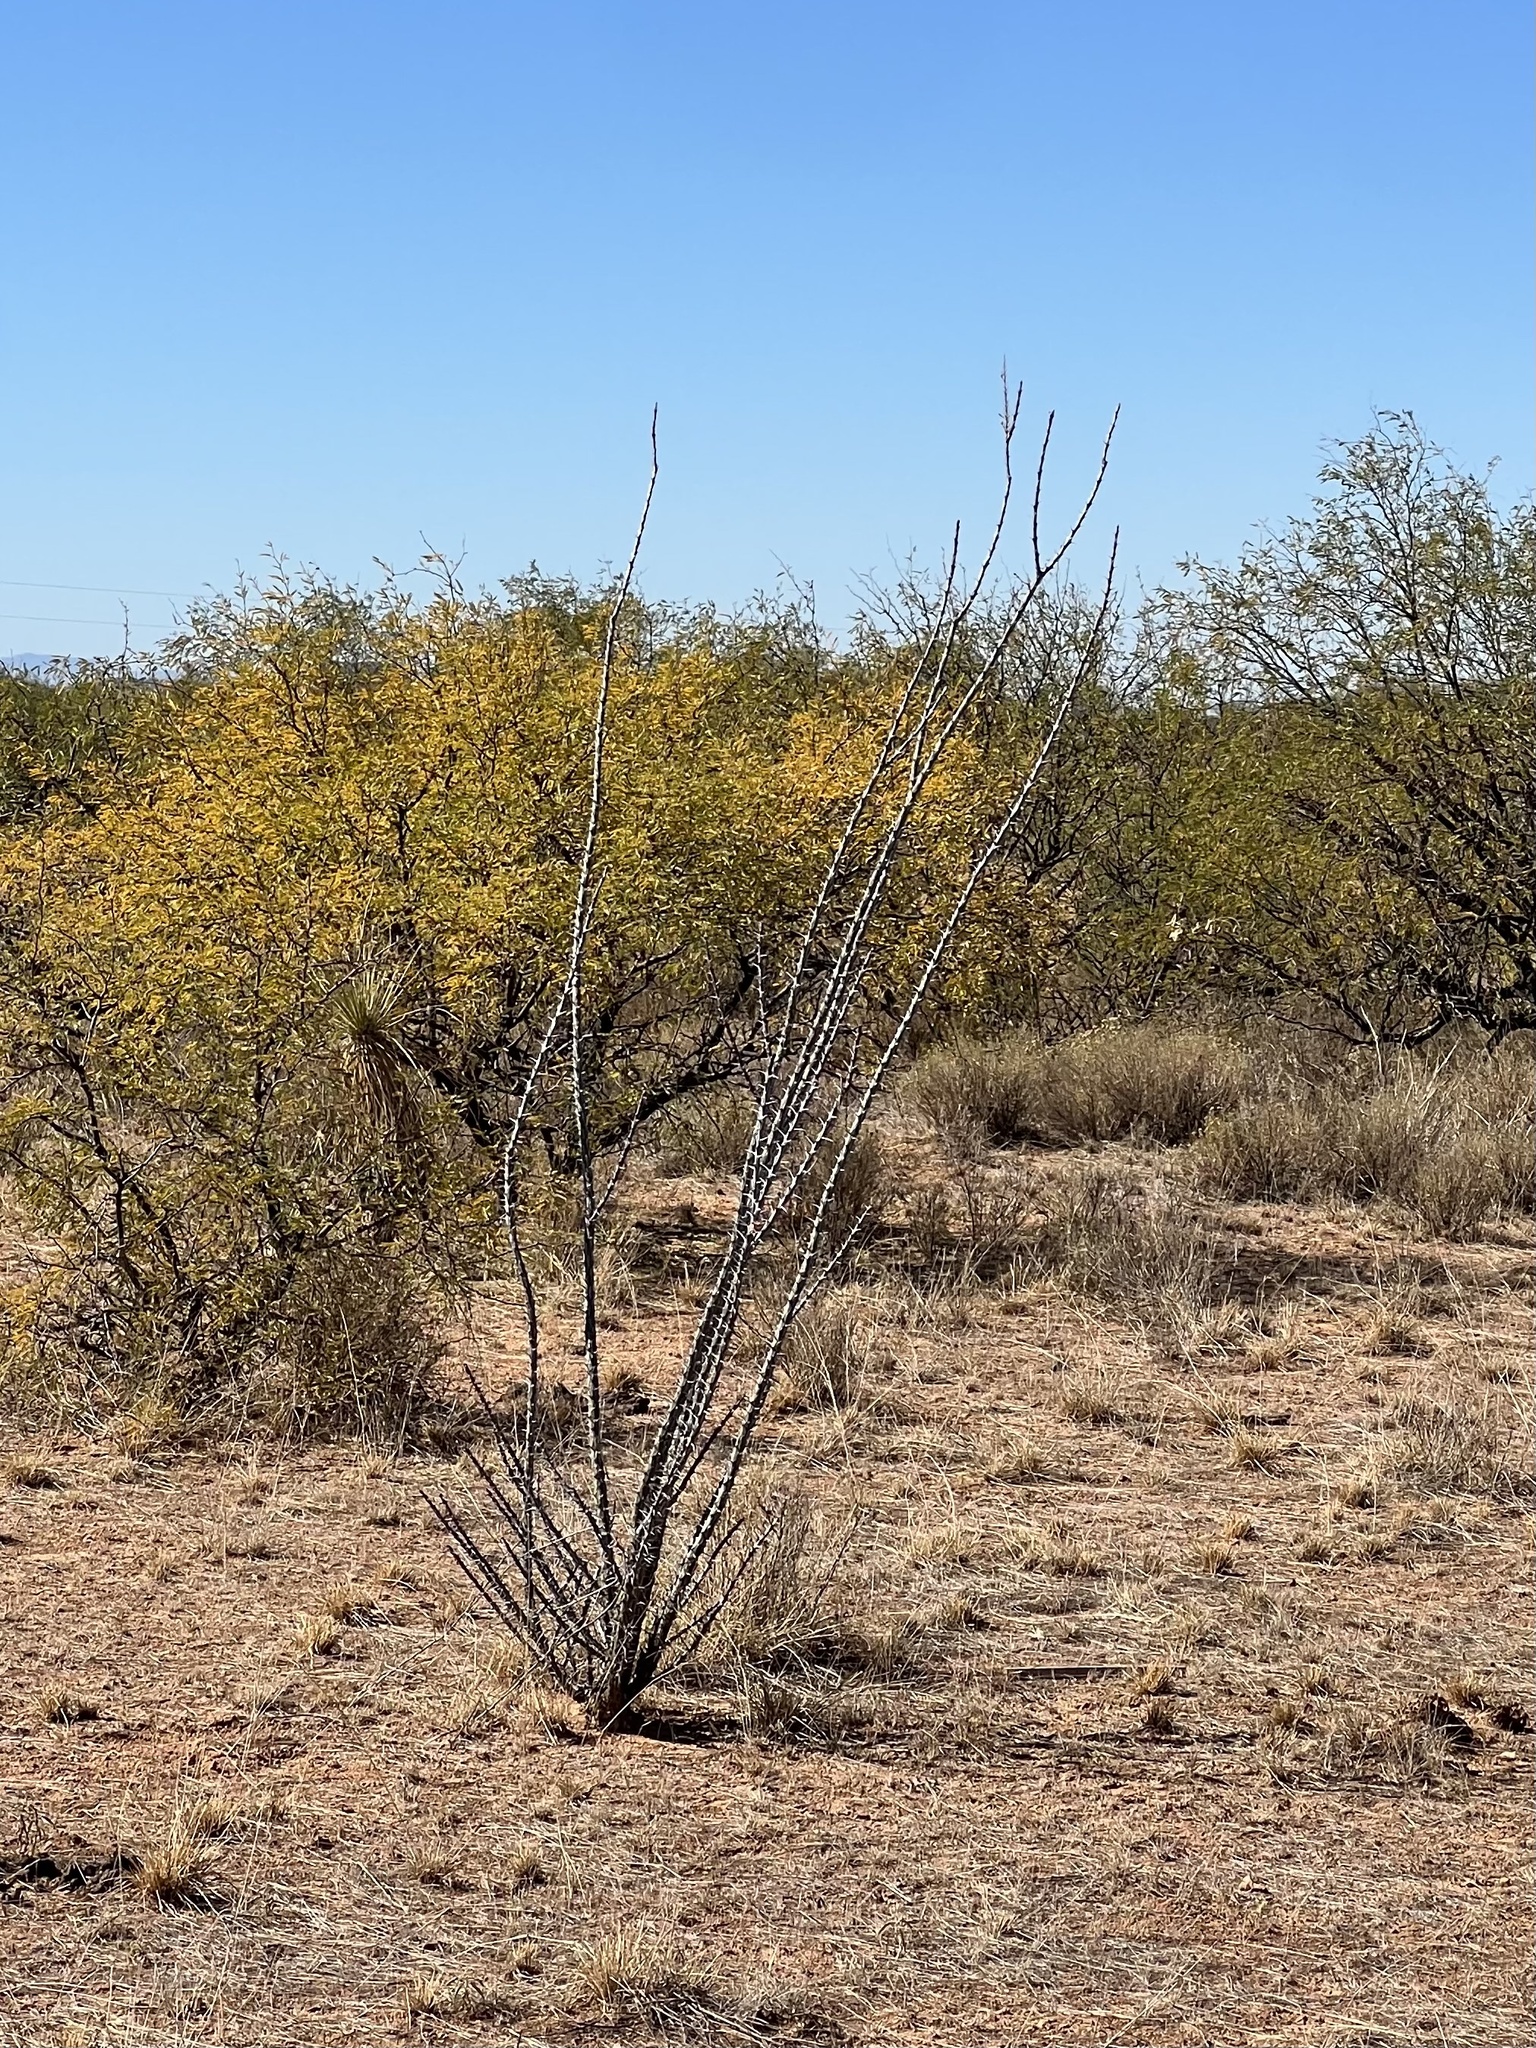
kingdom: Plantae
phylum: Tracheophyta
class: Magnoliopsida
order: Ericales
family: Fouquieriaceae
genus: Fouquieria
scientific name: Fouquieria splendens
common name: Vine-cactus
